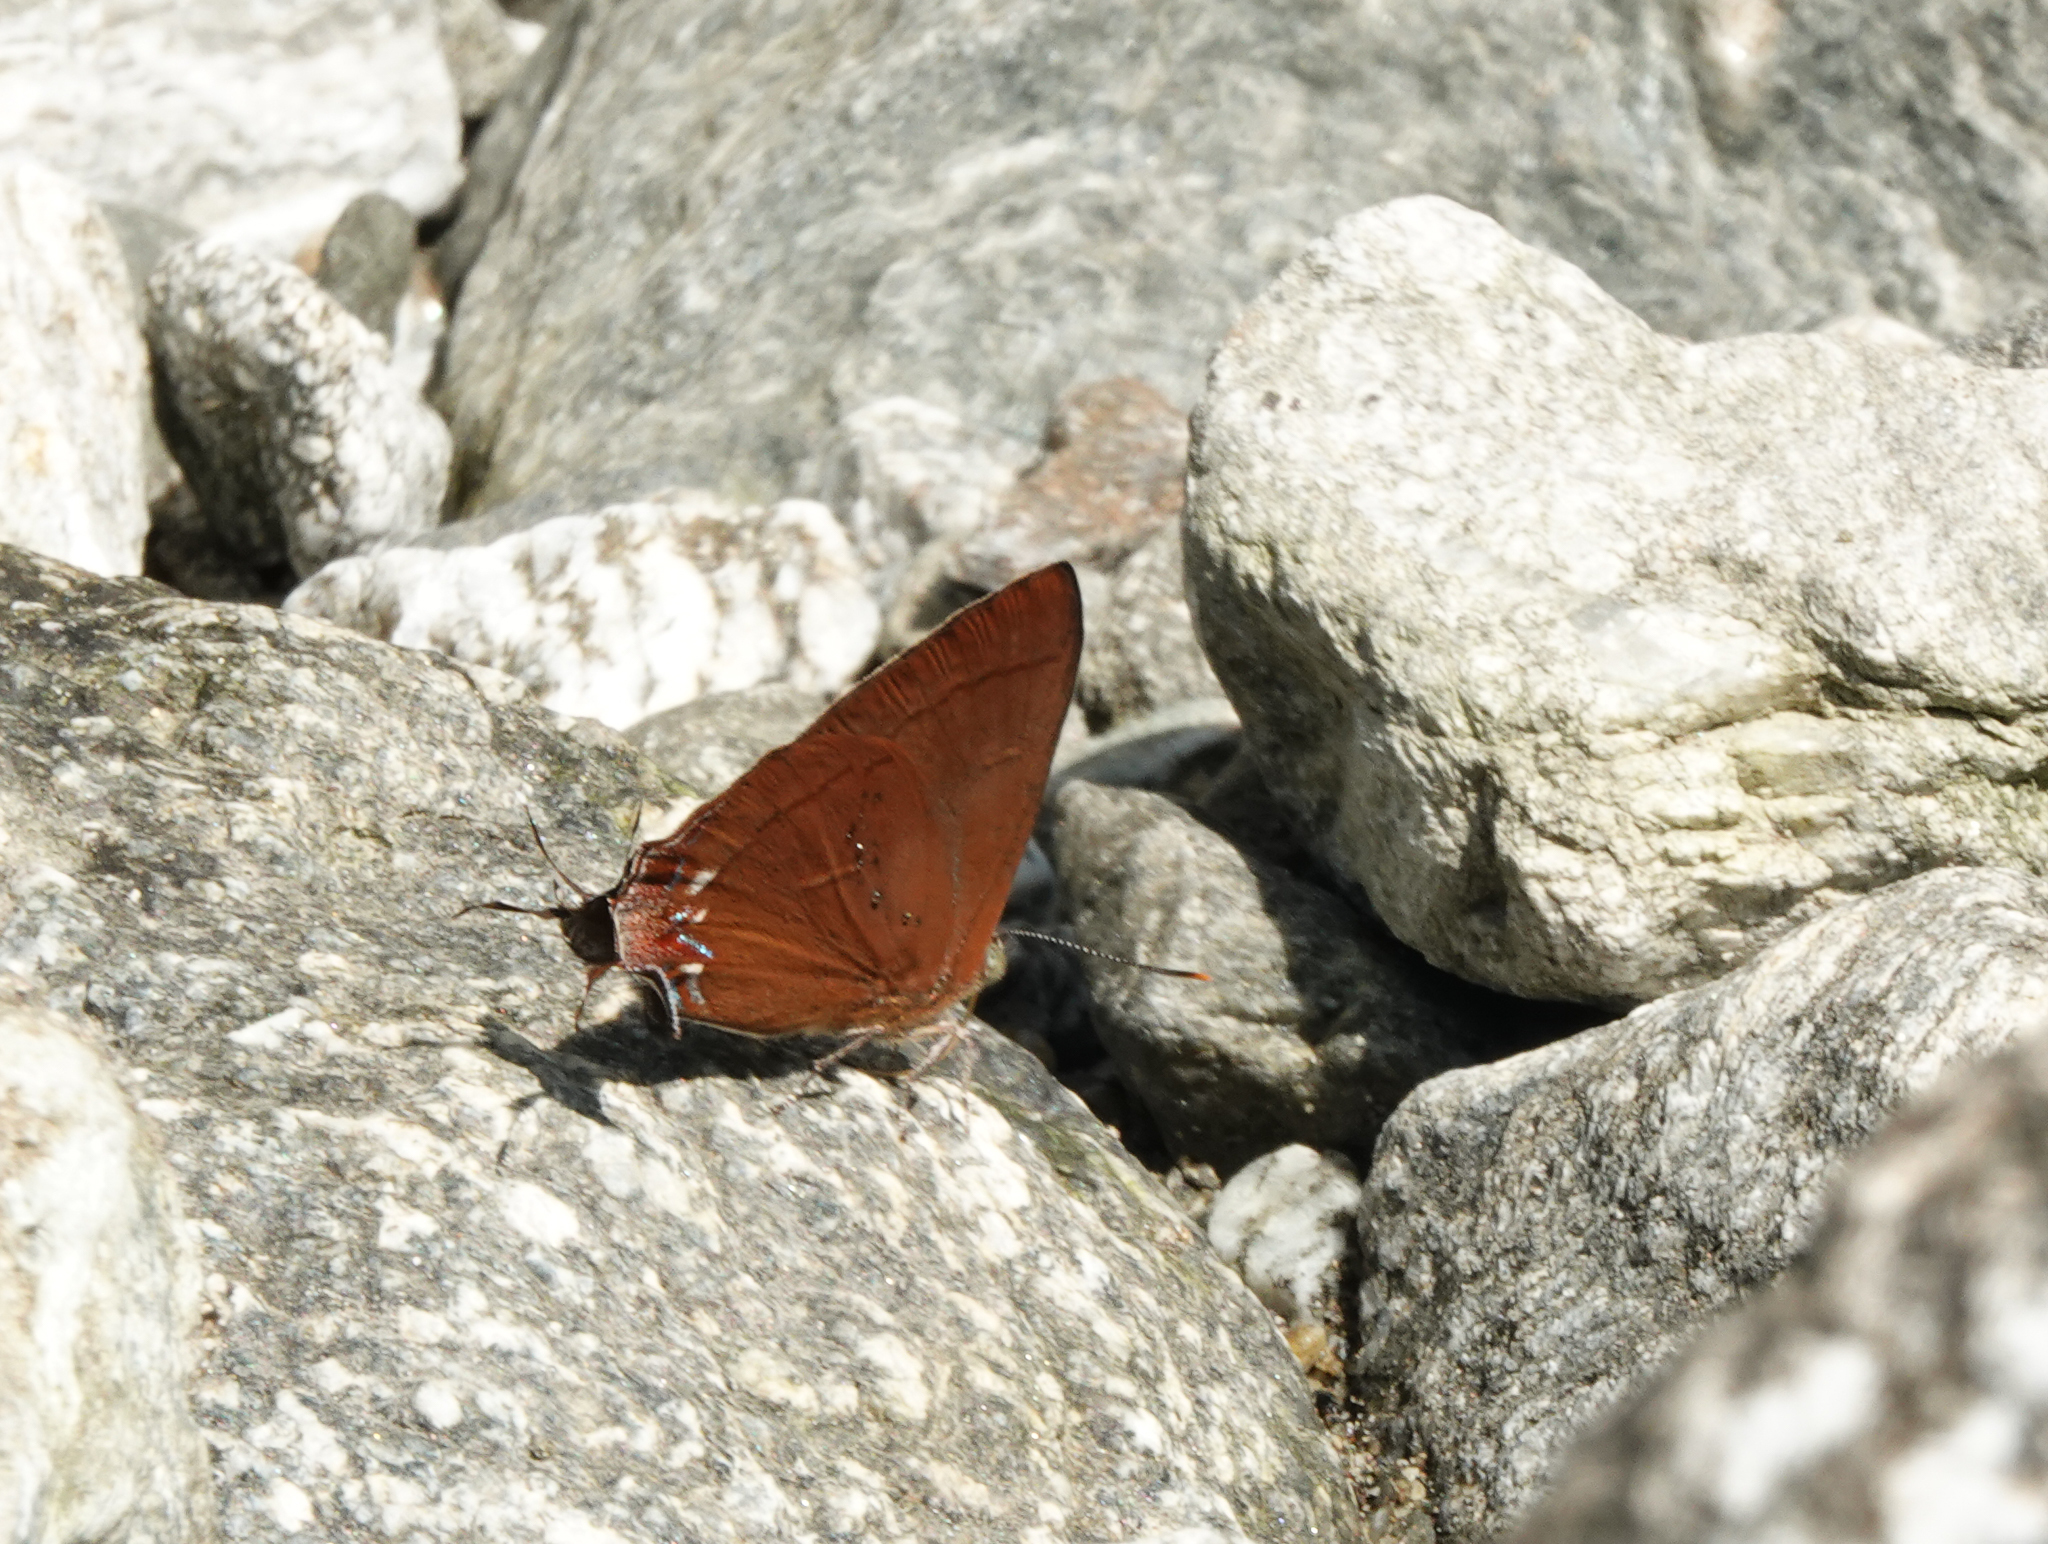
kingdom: Animalia
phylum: Arthropoda
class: Insecta
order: Lepidoptera
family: Lycaenidae
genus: Remelana
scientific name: Remelana jangala
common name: Chocolate royal
